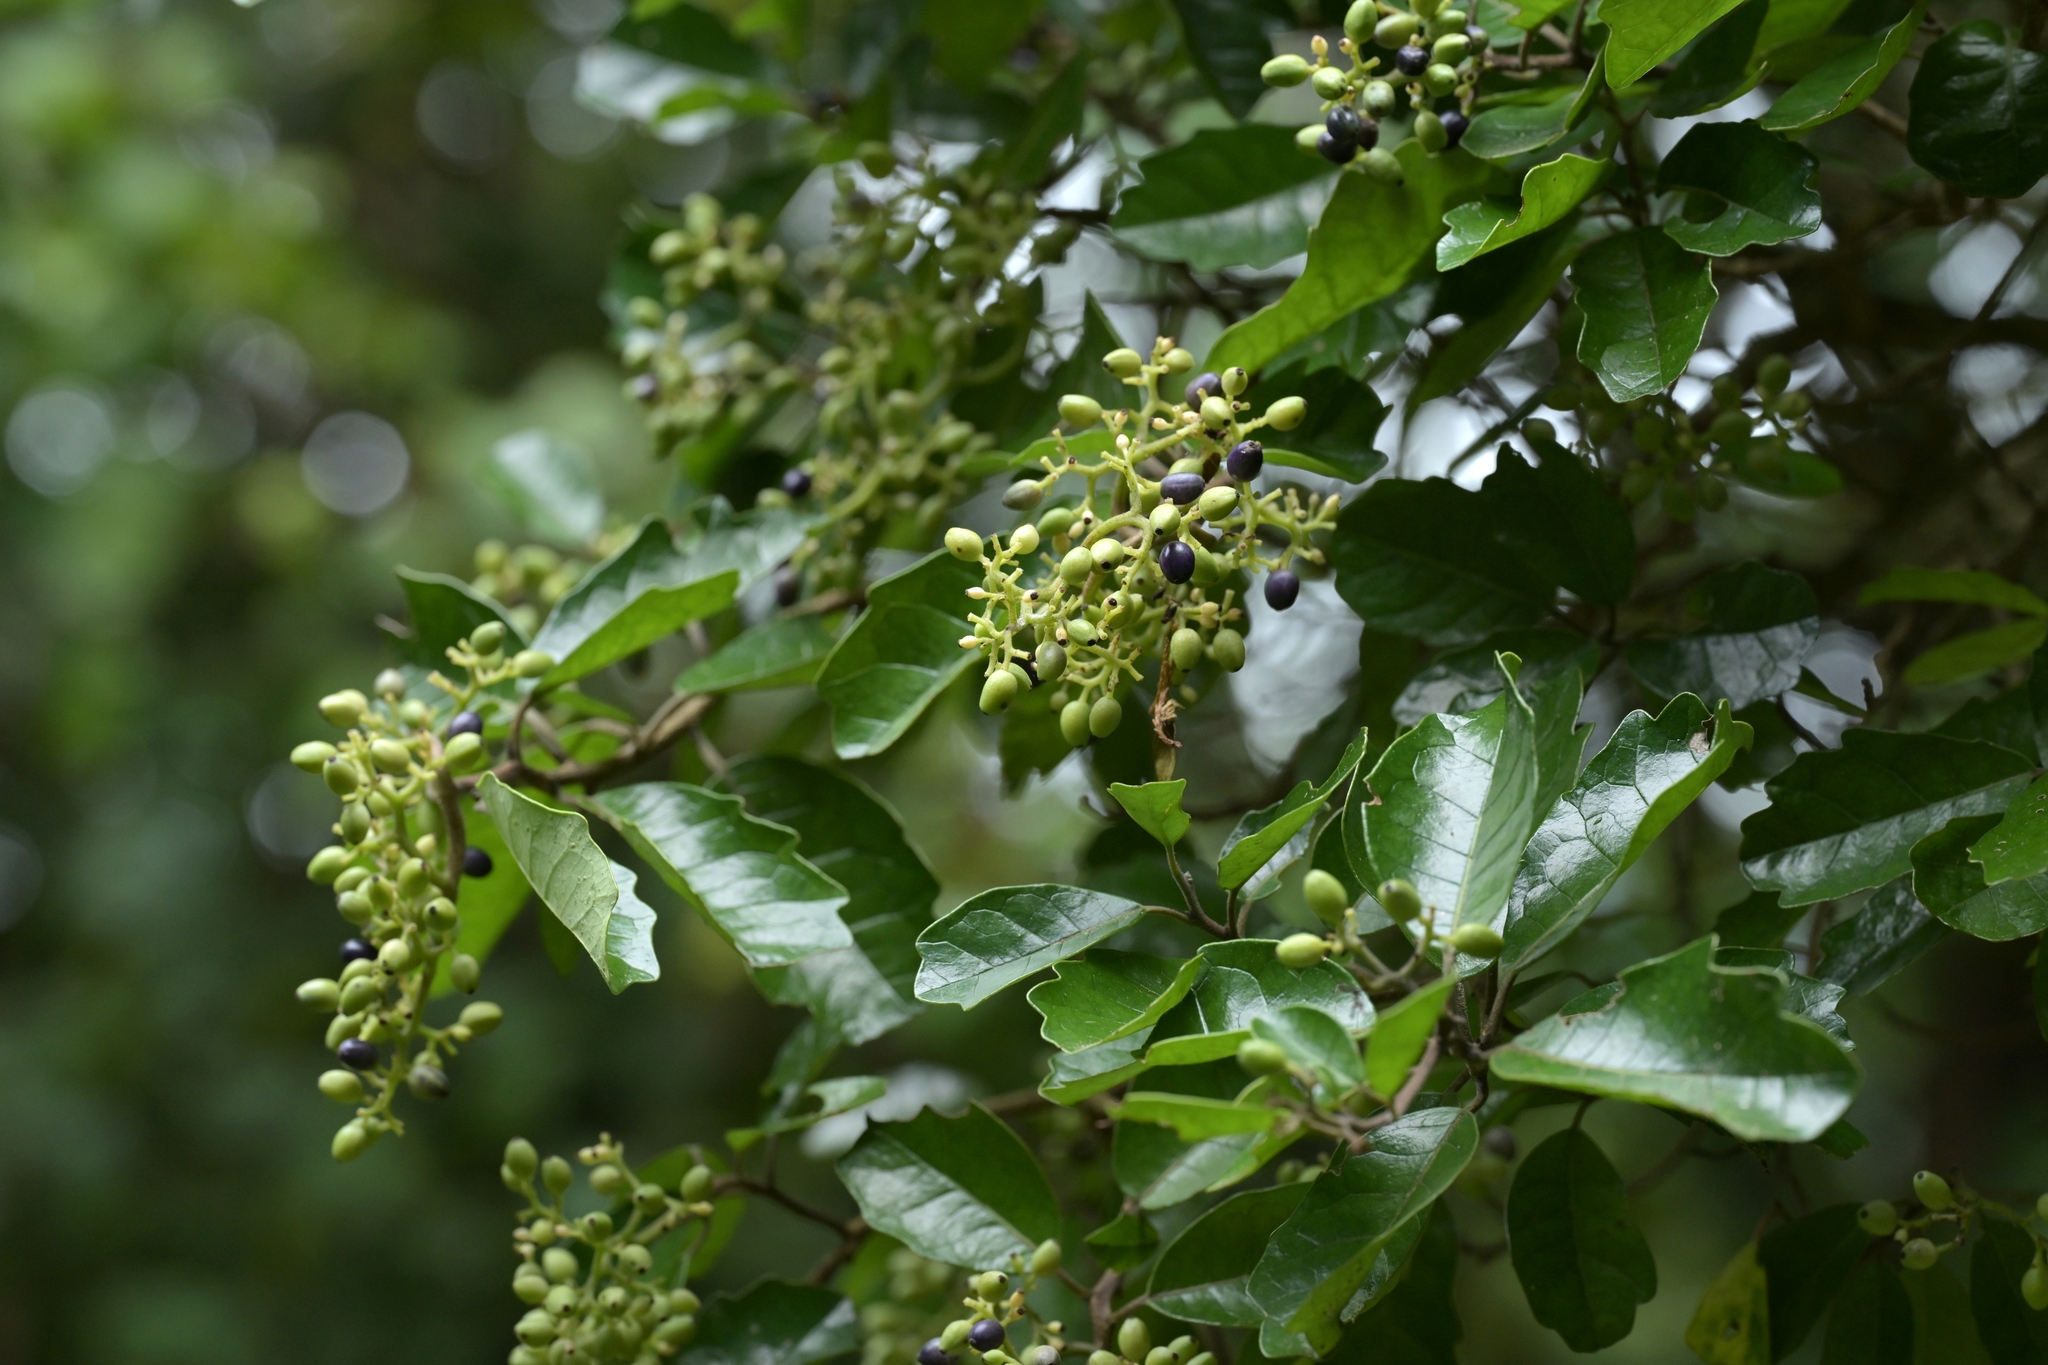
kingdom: Plantae
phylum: Tracheophyta
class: Magnoliopsida
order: Apiales
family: Pennantiaceae
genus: Pennantia
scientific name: Pennantia corymbosa
